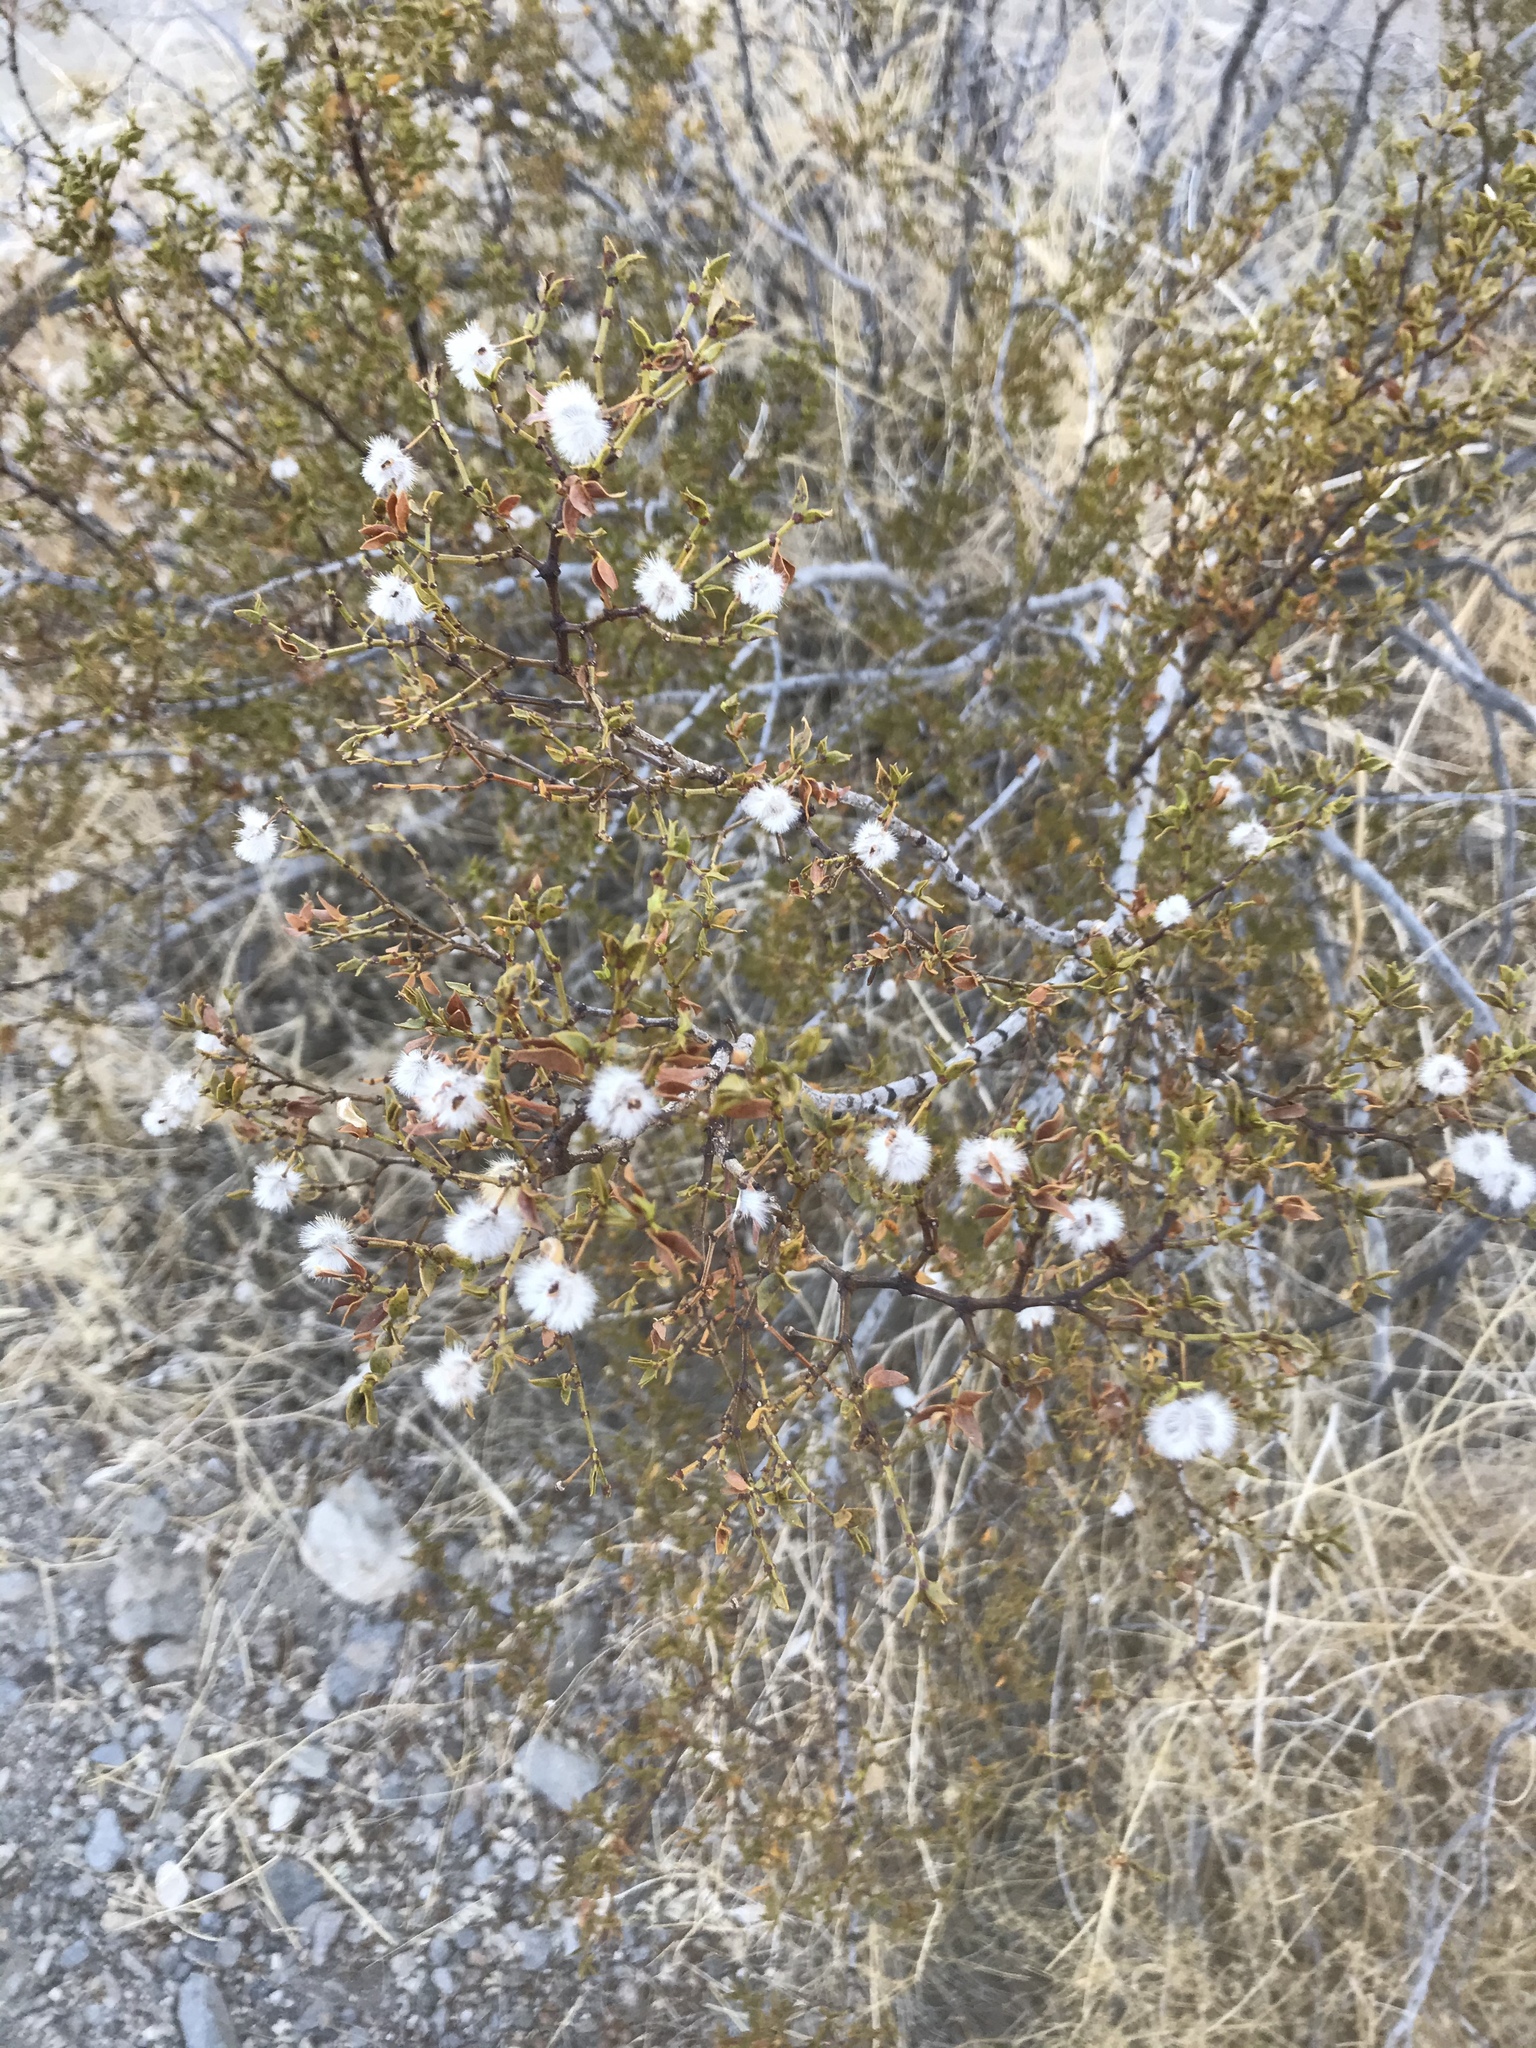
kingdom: Plantae
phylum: Tracheophyta
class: Magnoliopsida
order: Zygophyllales
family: Zygophyllaceae
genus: Larrea
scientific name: Larrea tridentata
